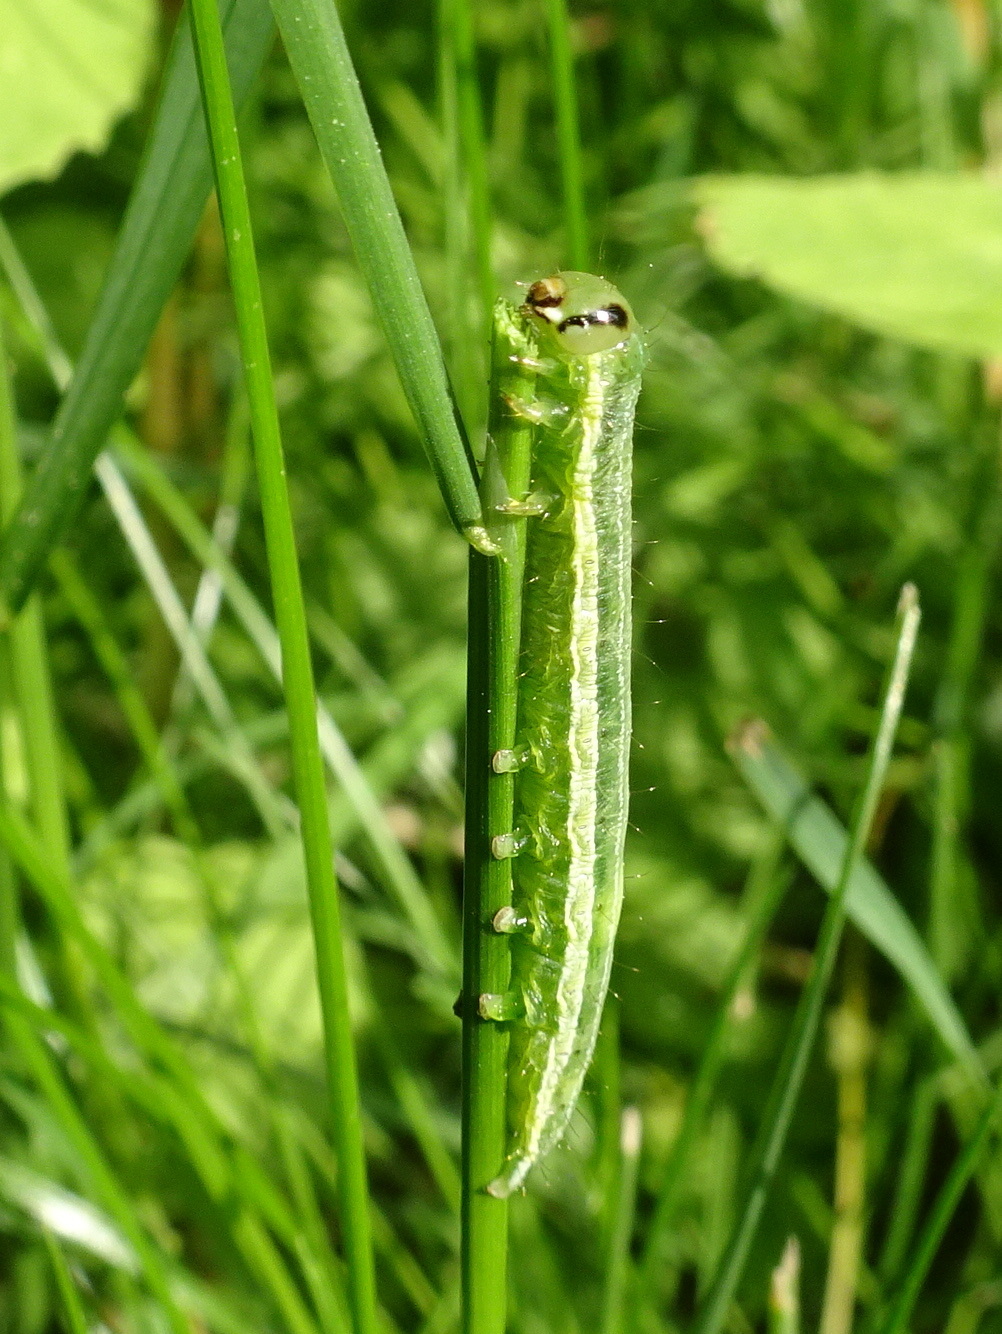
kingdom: Animalia
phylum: Arthropoda
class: Insecta
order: Lepidoptera
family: Noctuidae
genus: Loscopia
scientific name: Loscopia velata
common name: Veiled ear moth
